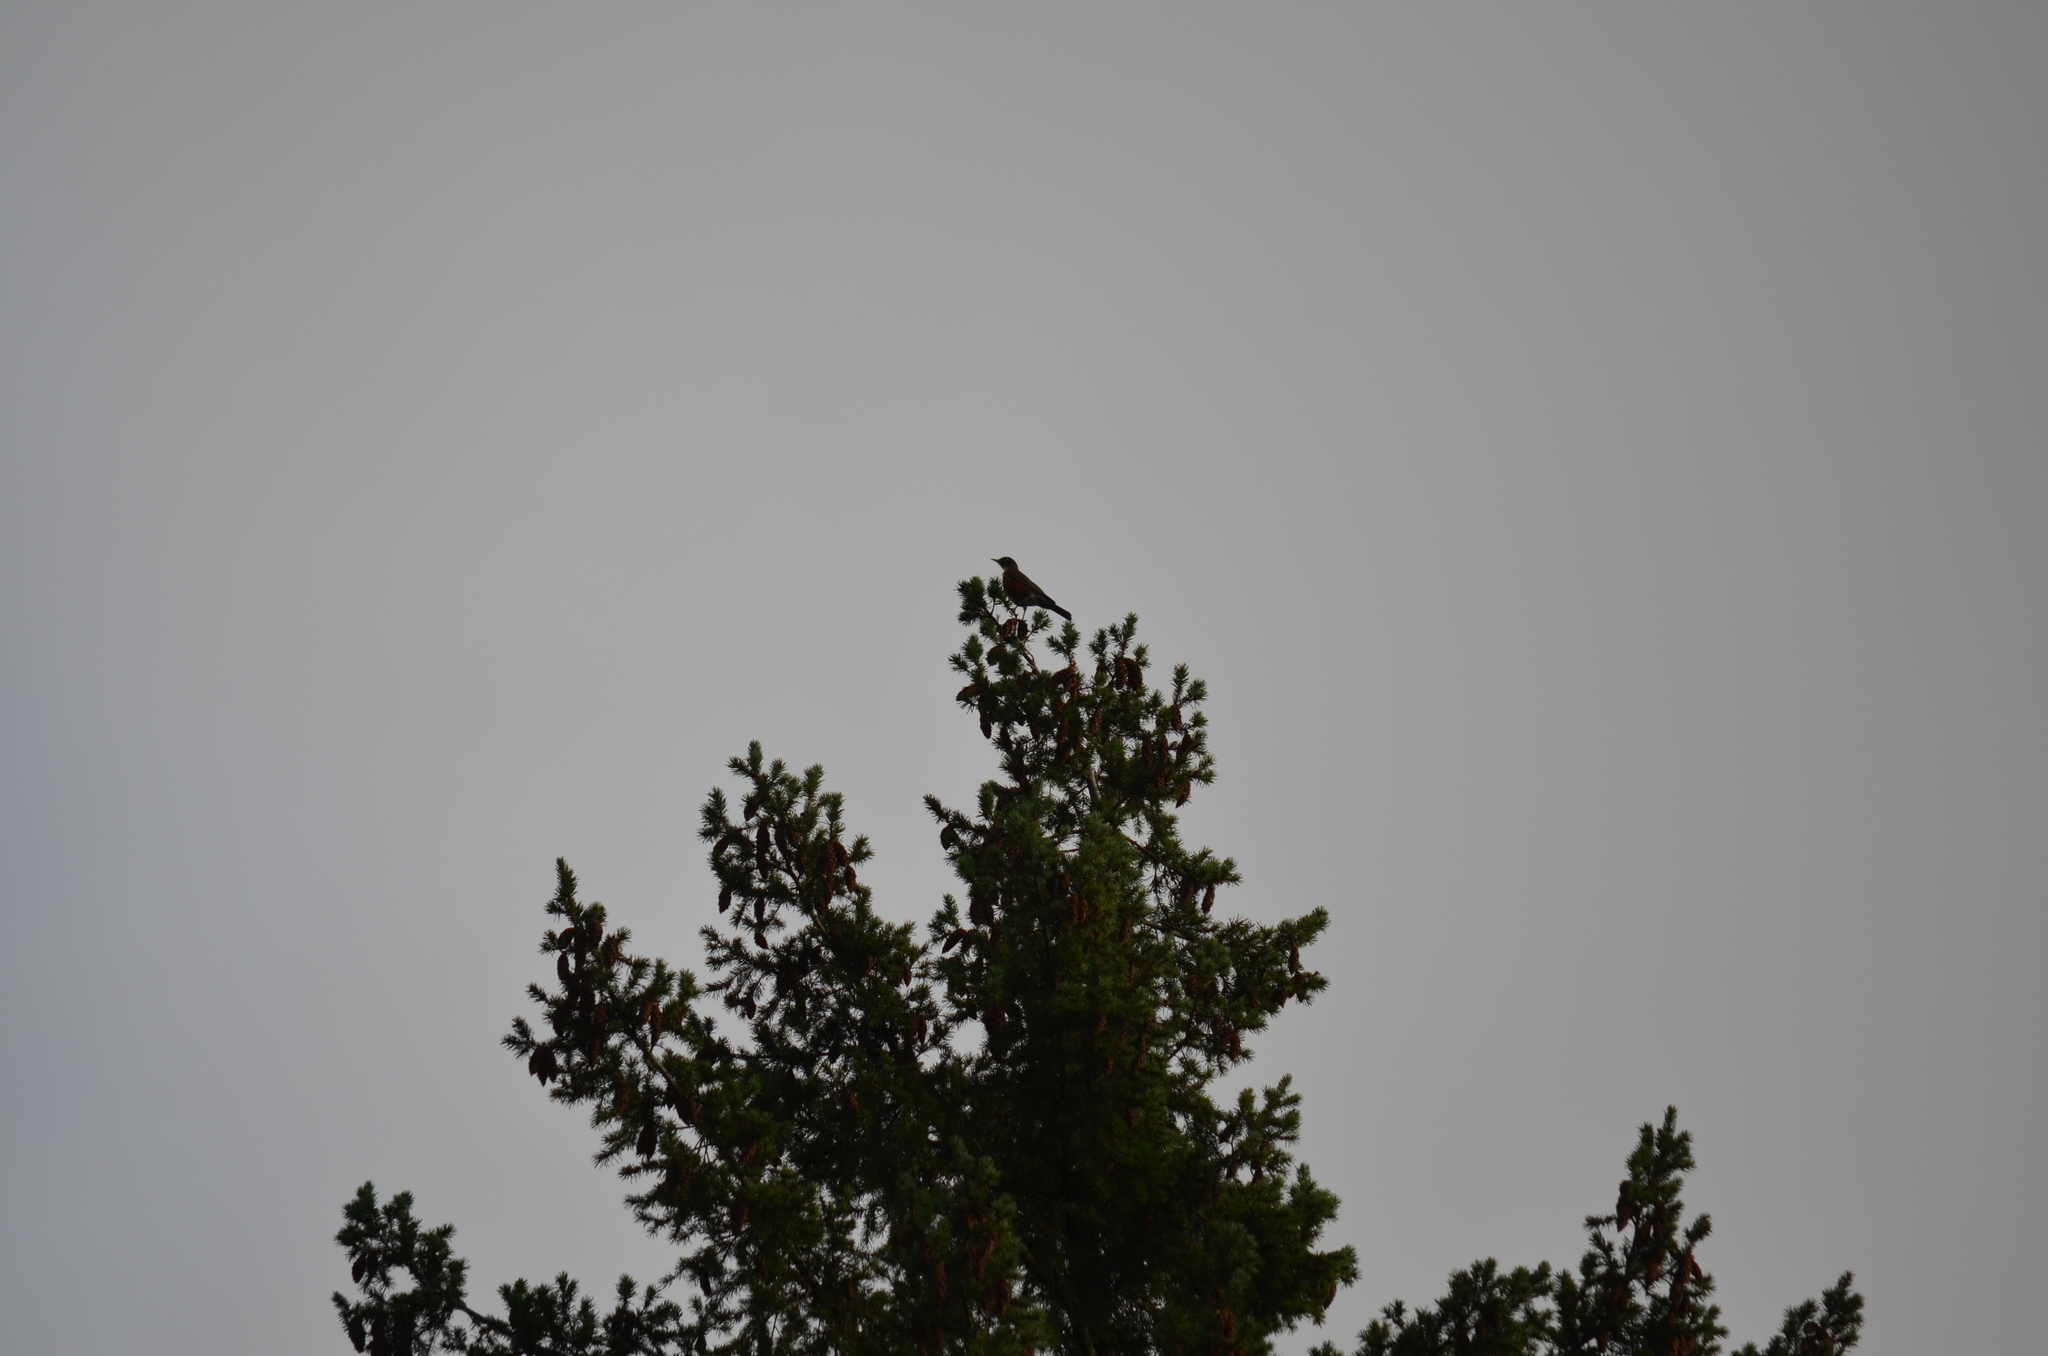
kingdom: Animalia
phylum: Chordata
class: Aves
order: Passeriformes
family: Turdidae
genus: Turdus
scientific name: Turdus migratorius
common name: American robin
